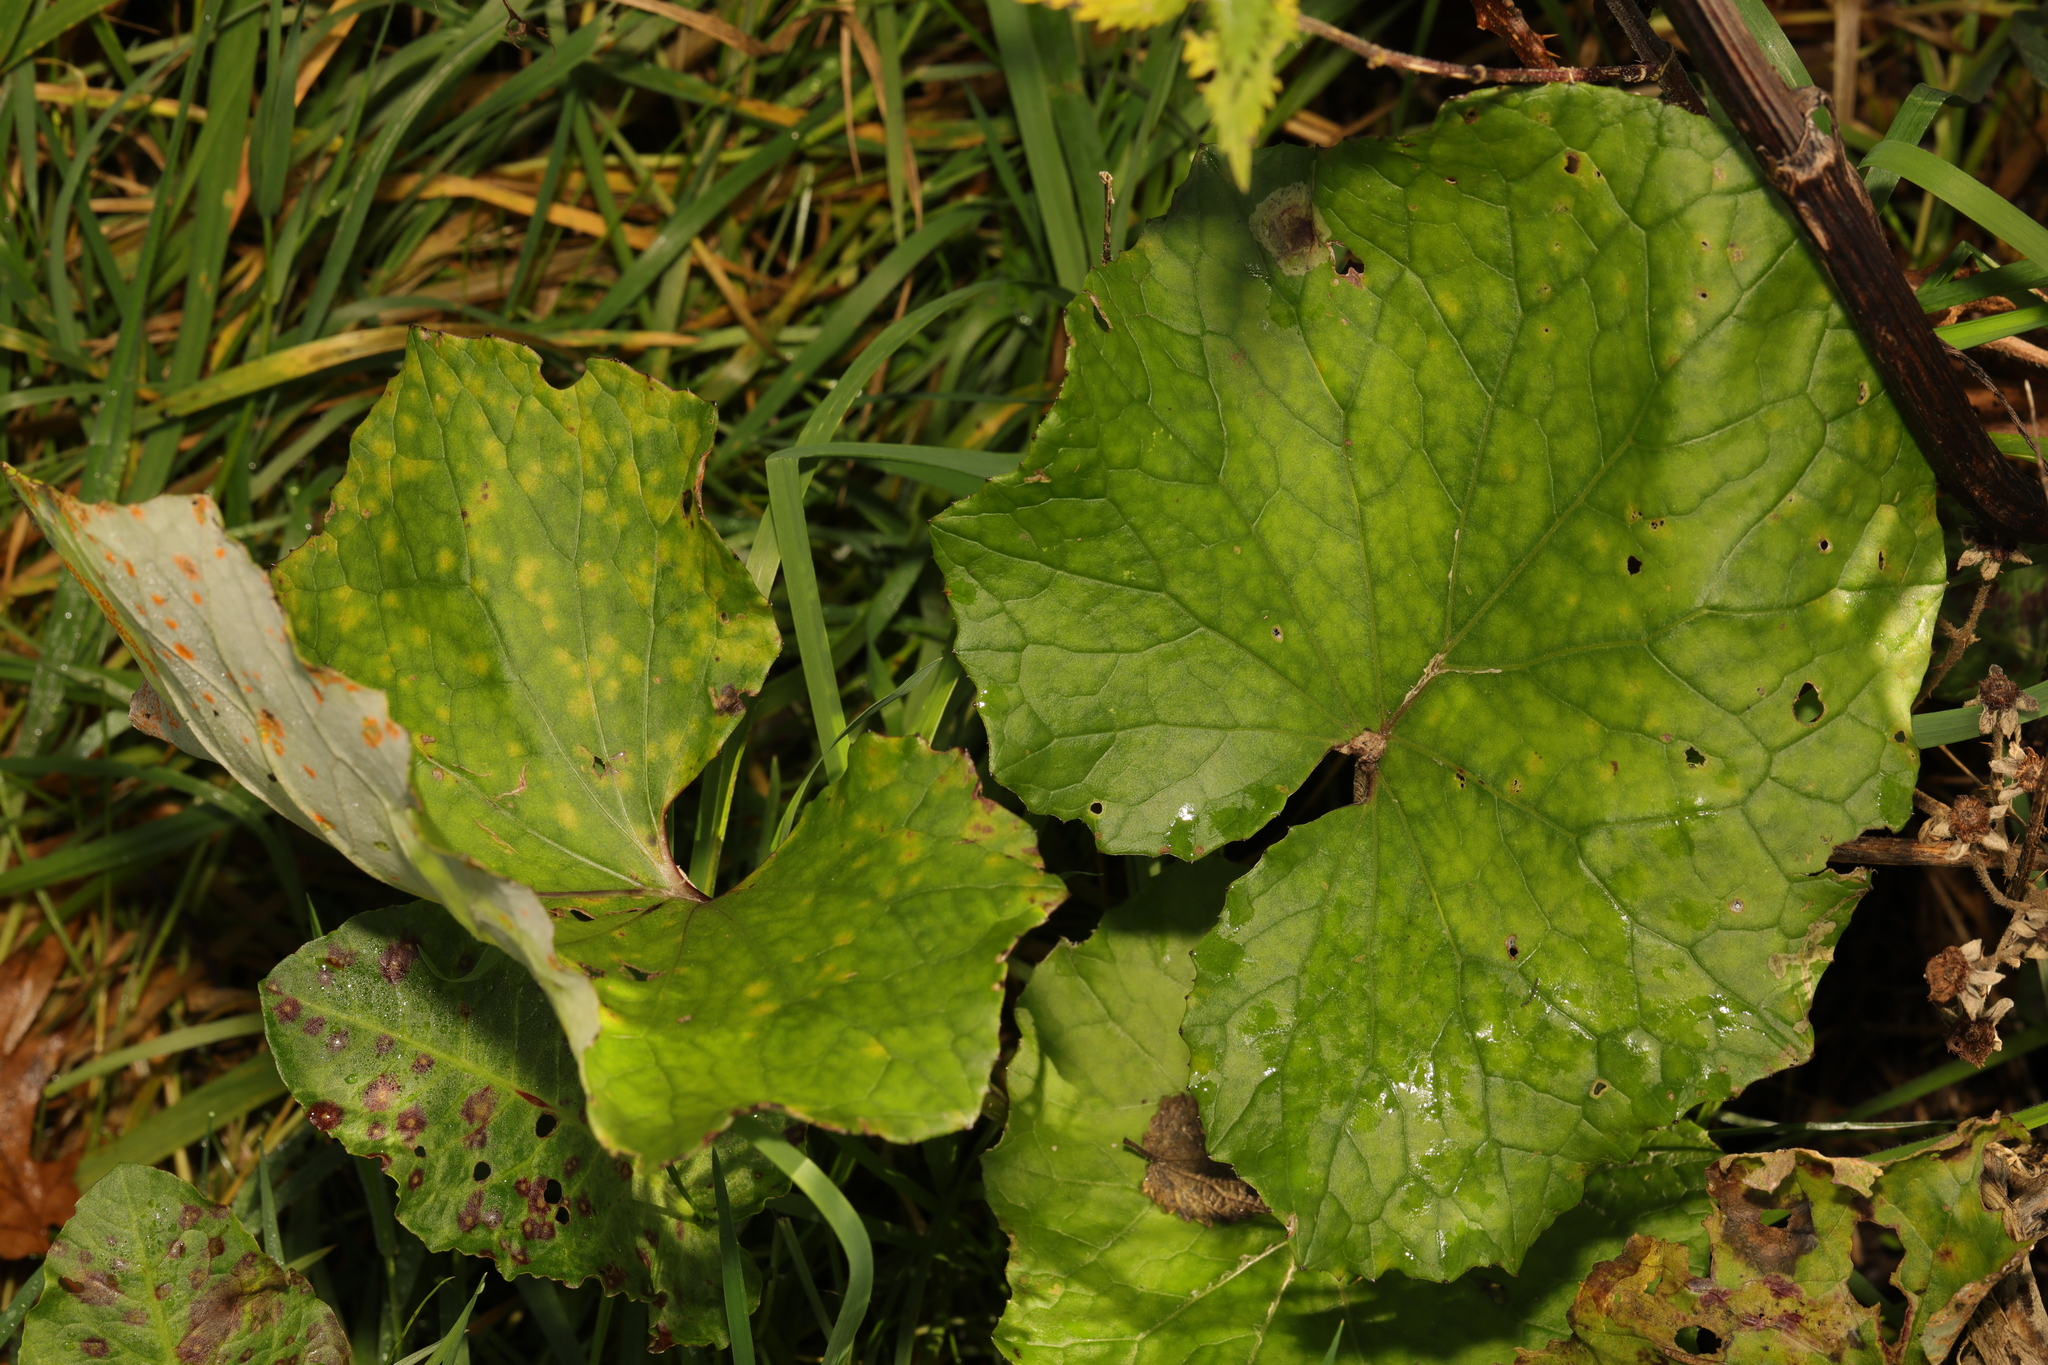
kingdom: Plantae
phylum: Tracheophyta
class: Magnoliopsida
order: Asterales
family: Asteraceae
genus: Tussilago
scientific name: Tussilago farfara
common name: Coltsfoot
